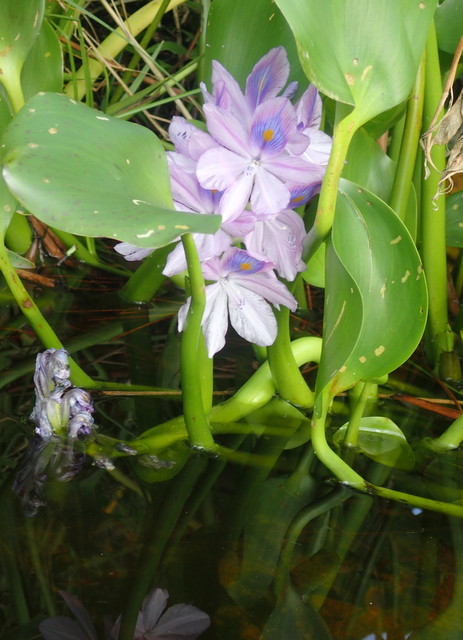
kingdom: Plantae
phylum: Tracheophyta
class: Liliopsida
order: Commelinales
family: Pontederiaceae
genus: Pontederia
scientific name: Pontederia crassipes
